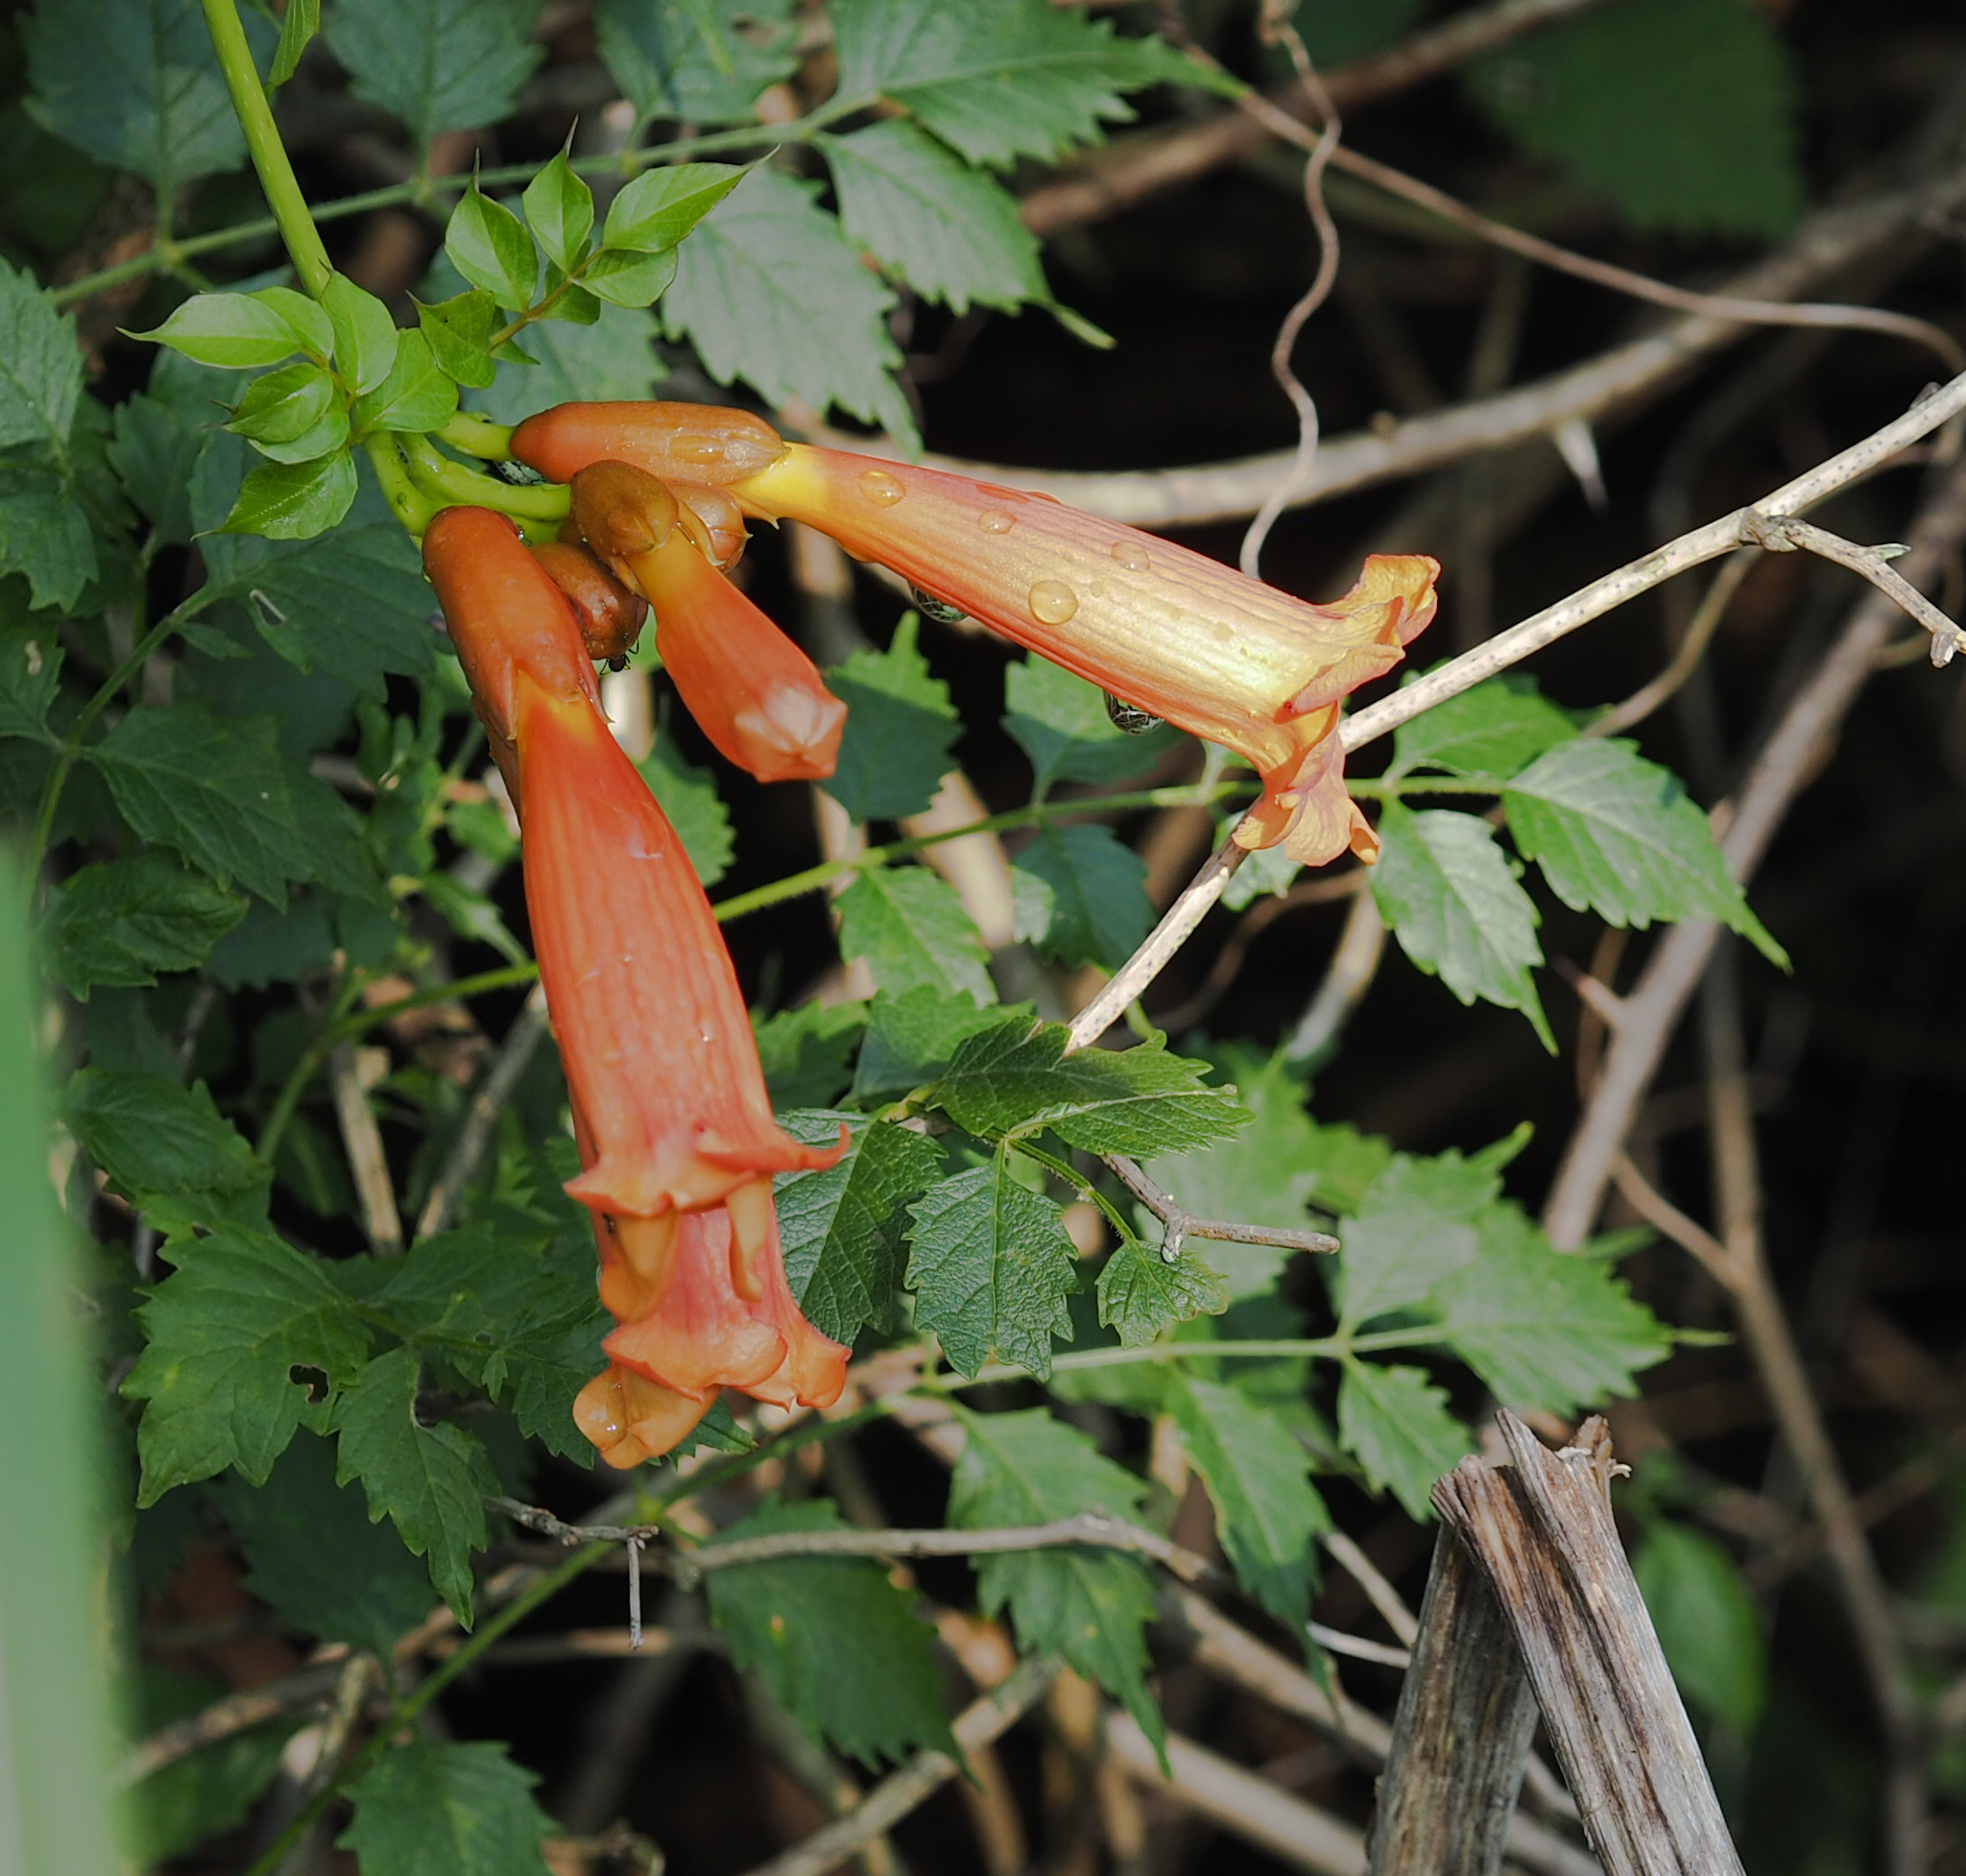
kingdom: Plantae
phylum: Tracheophyta
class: Magnoliopsida
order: Lamiales
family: Bignoniaceae
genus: Campsis
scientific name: Campsis radicans
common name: Trumpet-creeper
